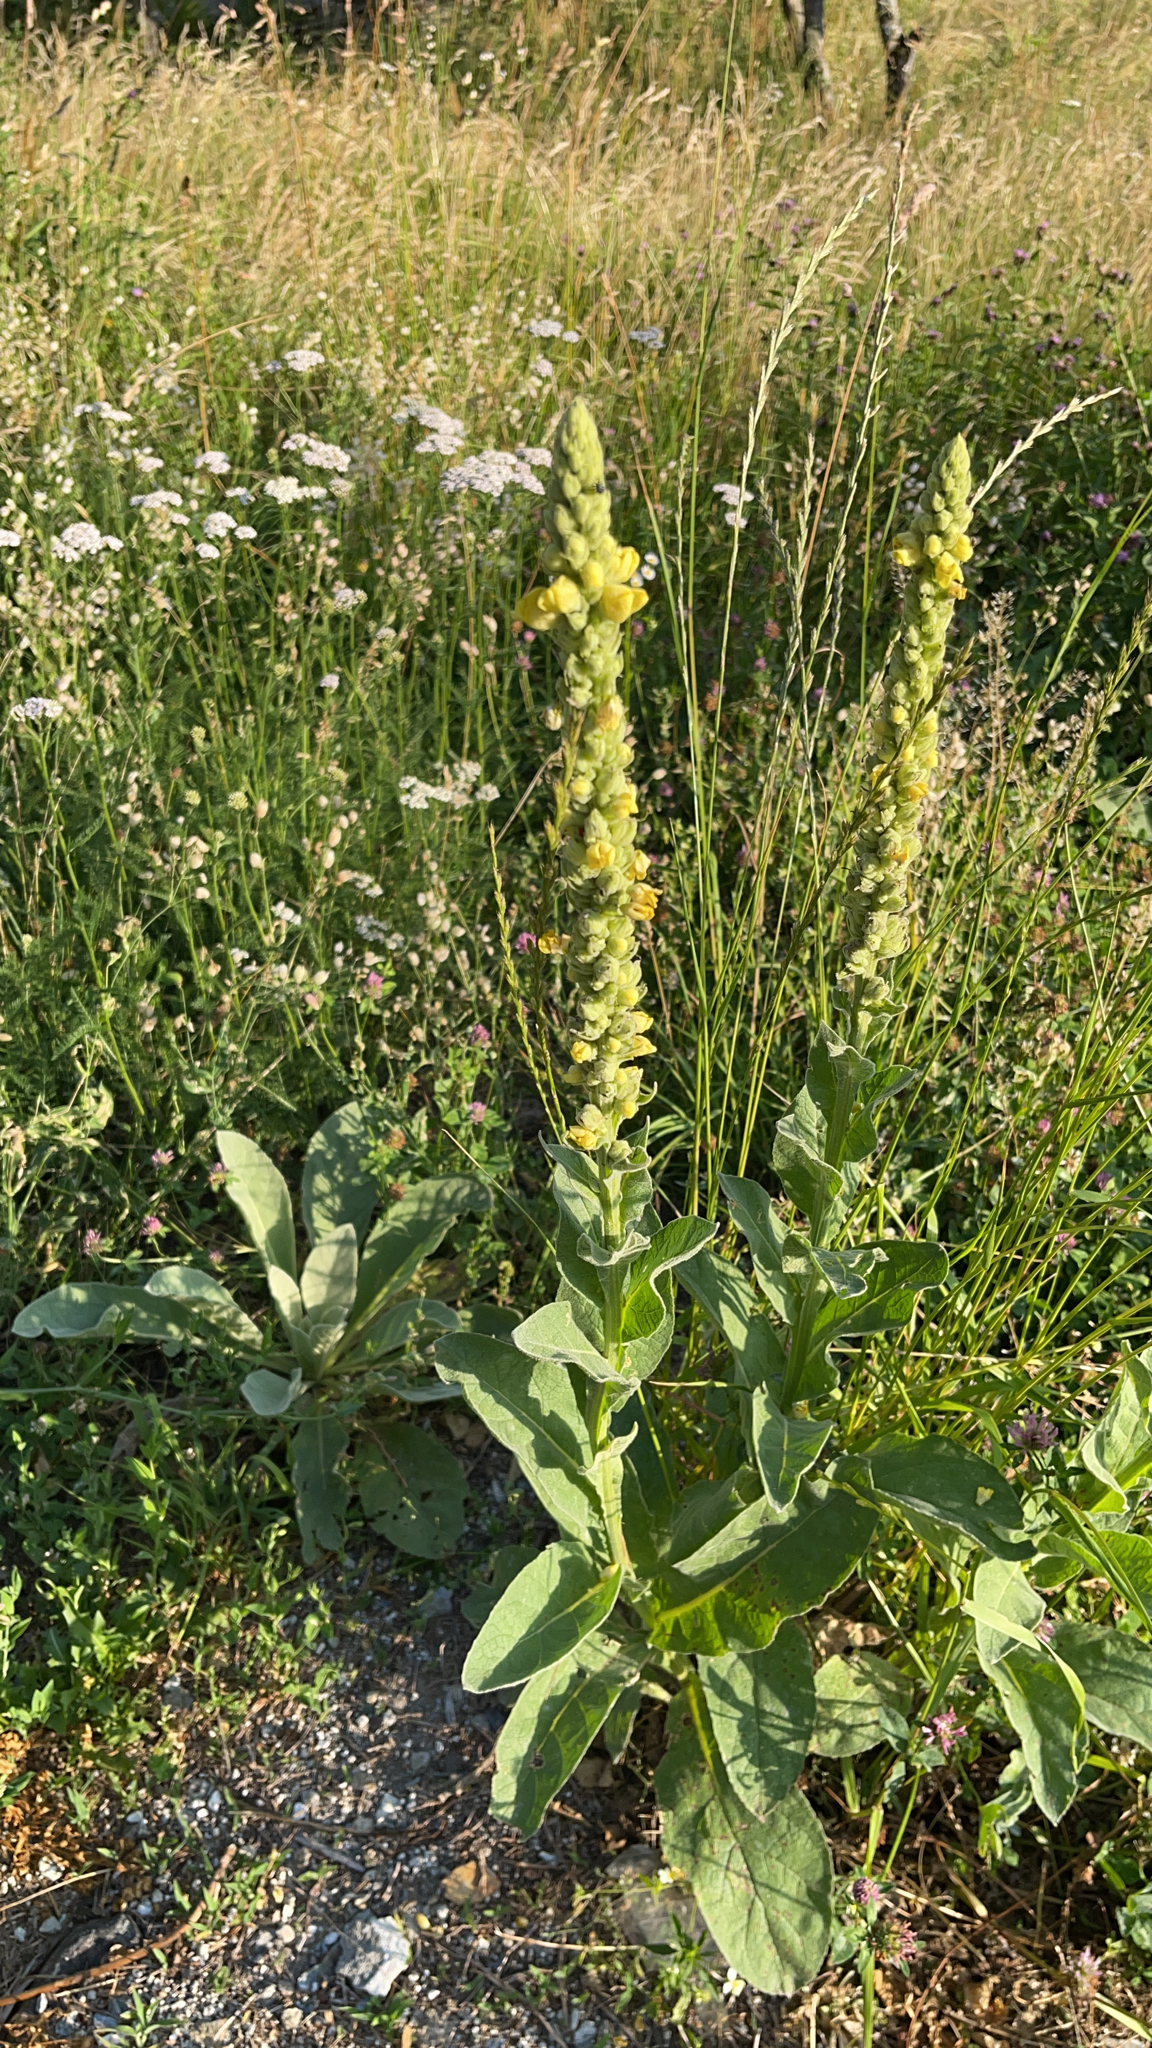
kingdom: Plantae
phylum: Tracheophyta
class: Magnoliopsida
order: Lamiales
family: Scrophulariaceae
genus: Verbascum
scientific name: Verbascum thapsus
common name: Common mullein
